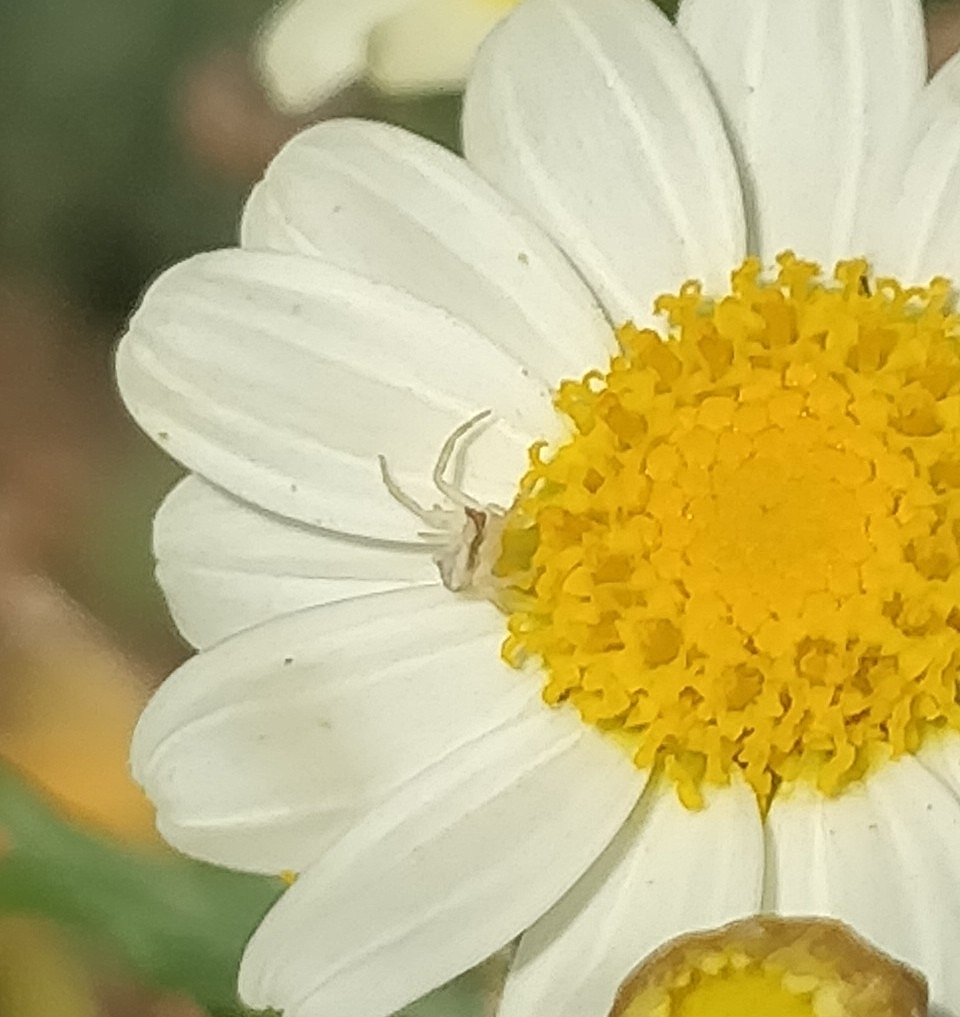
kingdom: Animalia
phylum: Arthropoda
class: Arachnida
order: Araneae
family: Thomisidae
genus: Thomisus
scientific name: Thomisus onustus
